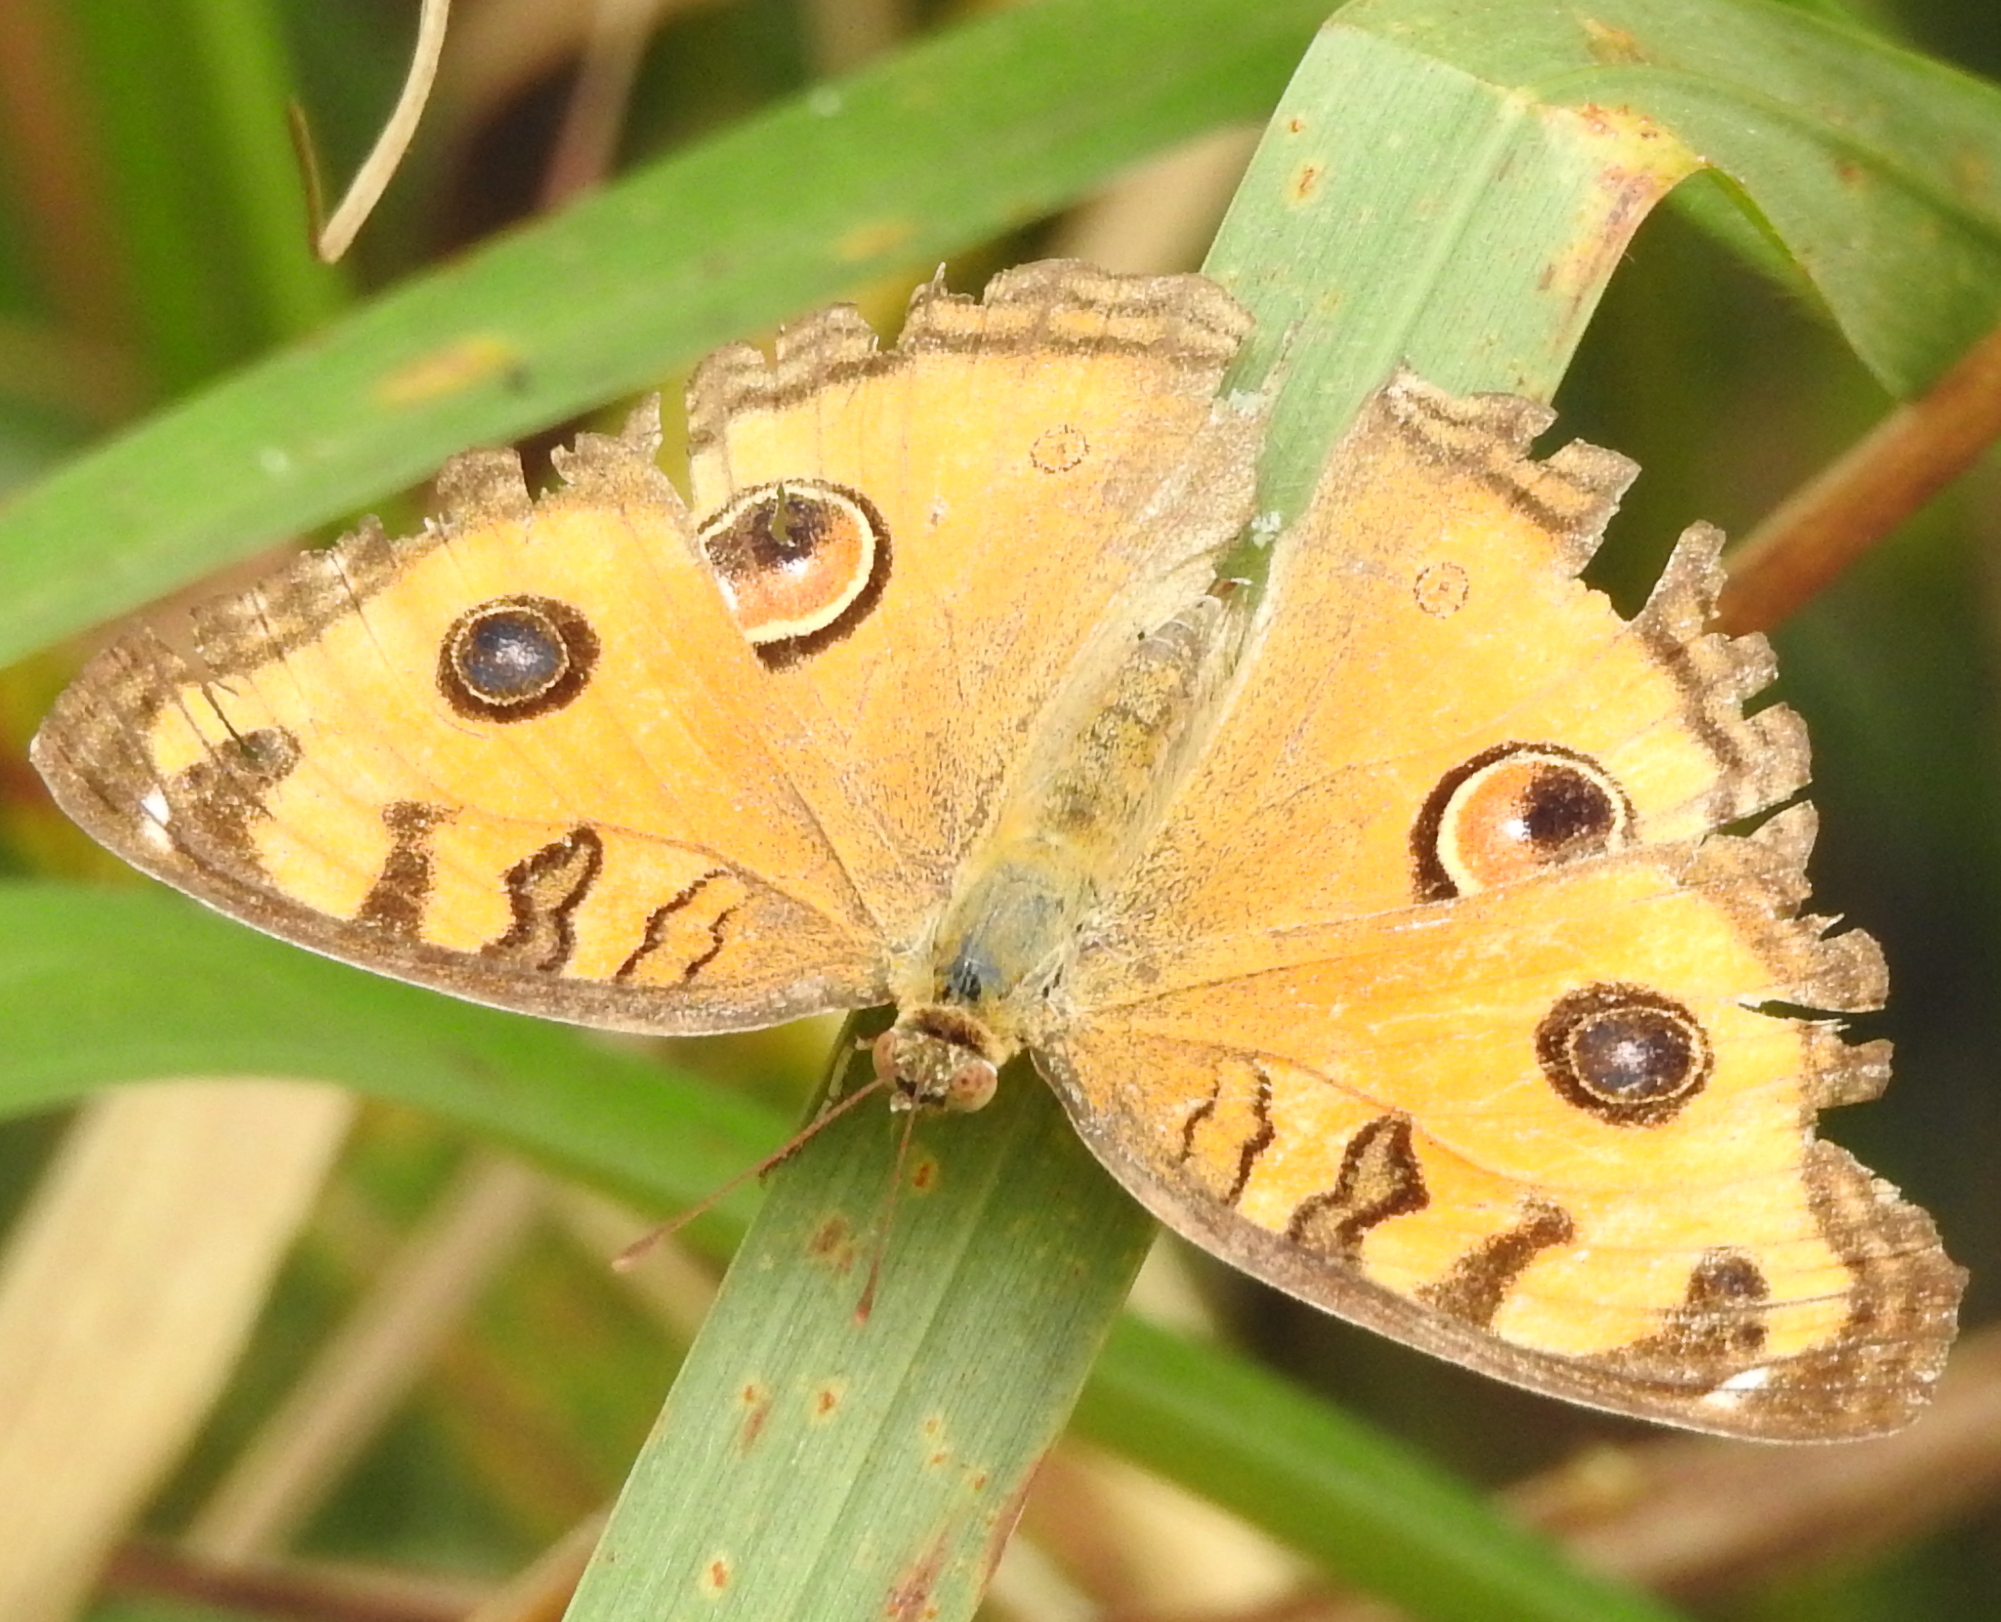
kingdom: Animalia
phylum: Arthropoda
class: Insecta
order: Lepidoptera
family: Nymphalidae
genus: Junonia
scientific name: Junonia almana
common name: Peacock pansy
